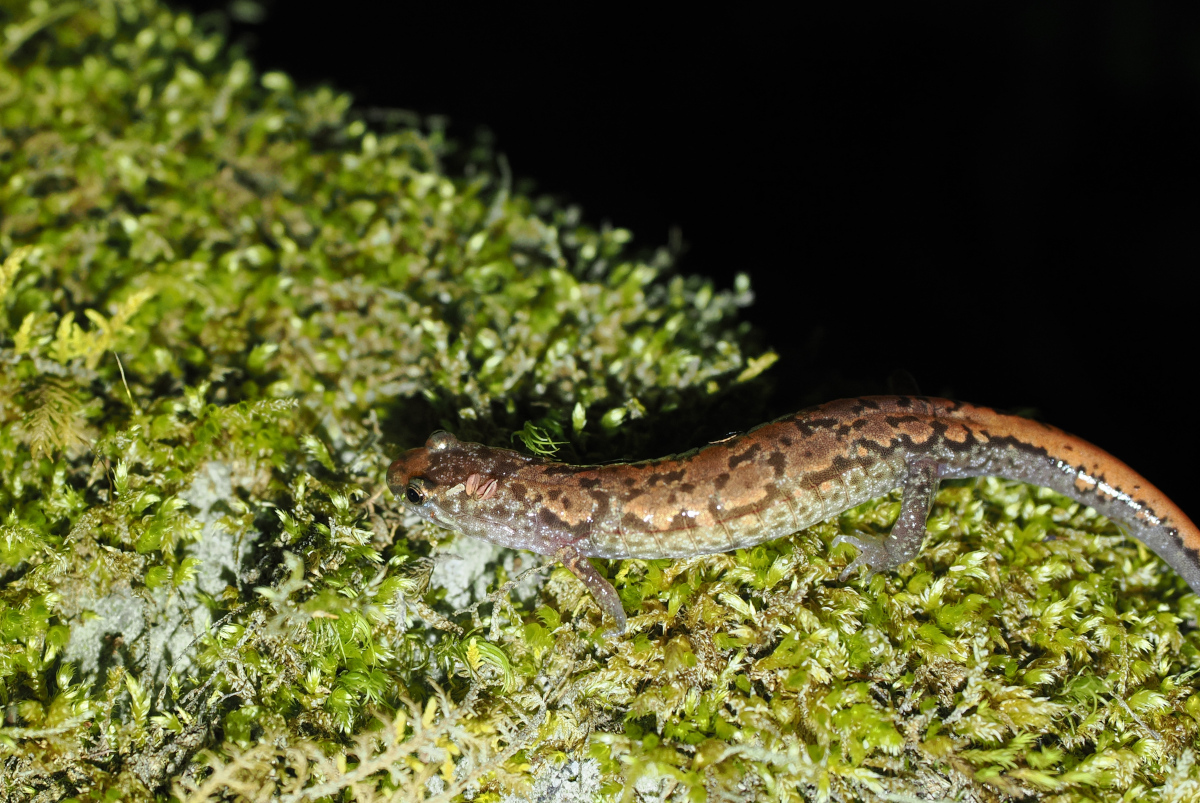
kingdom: Animalia
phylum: Chordata
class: Amphibia
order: Caudata
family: Plethodontidae
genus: Desmognathus
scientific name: Desmognathus orestes
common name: Blue ridge dusky salamander
